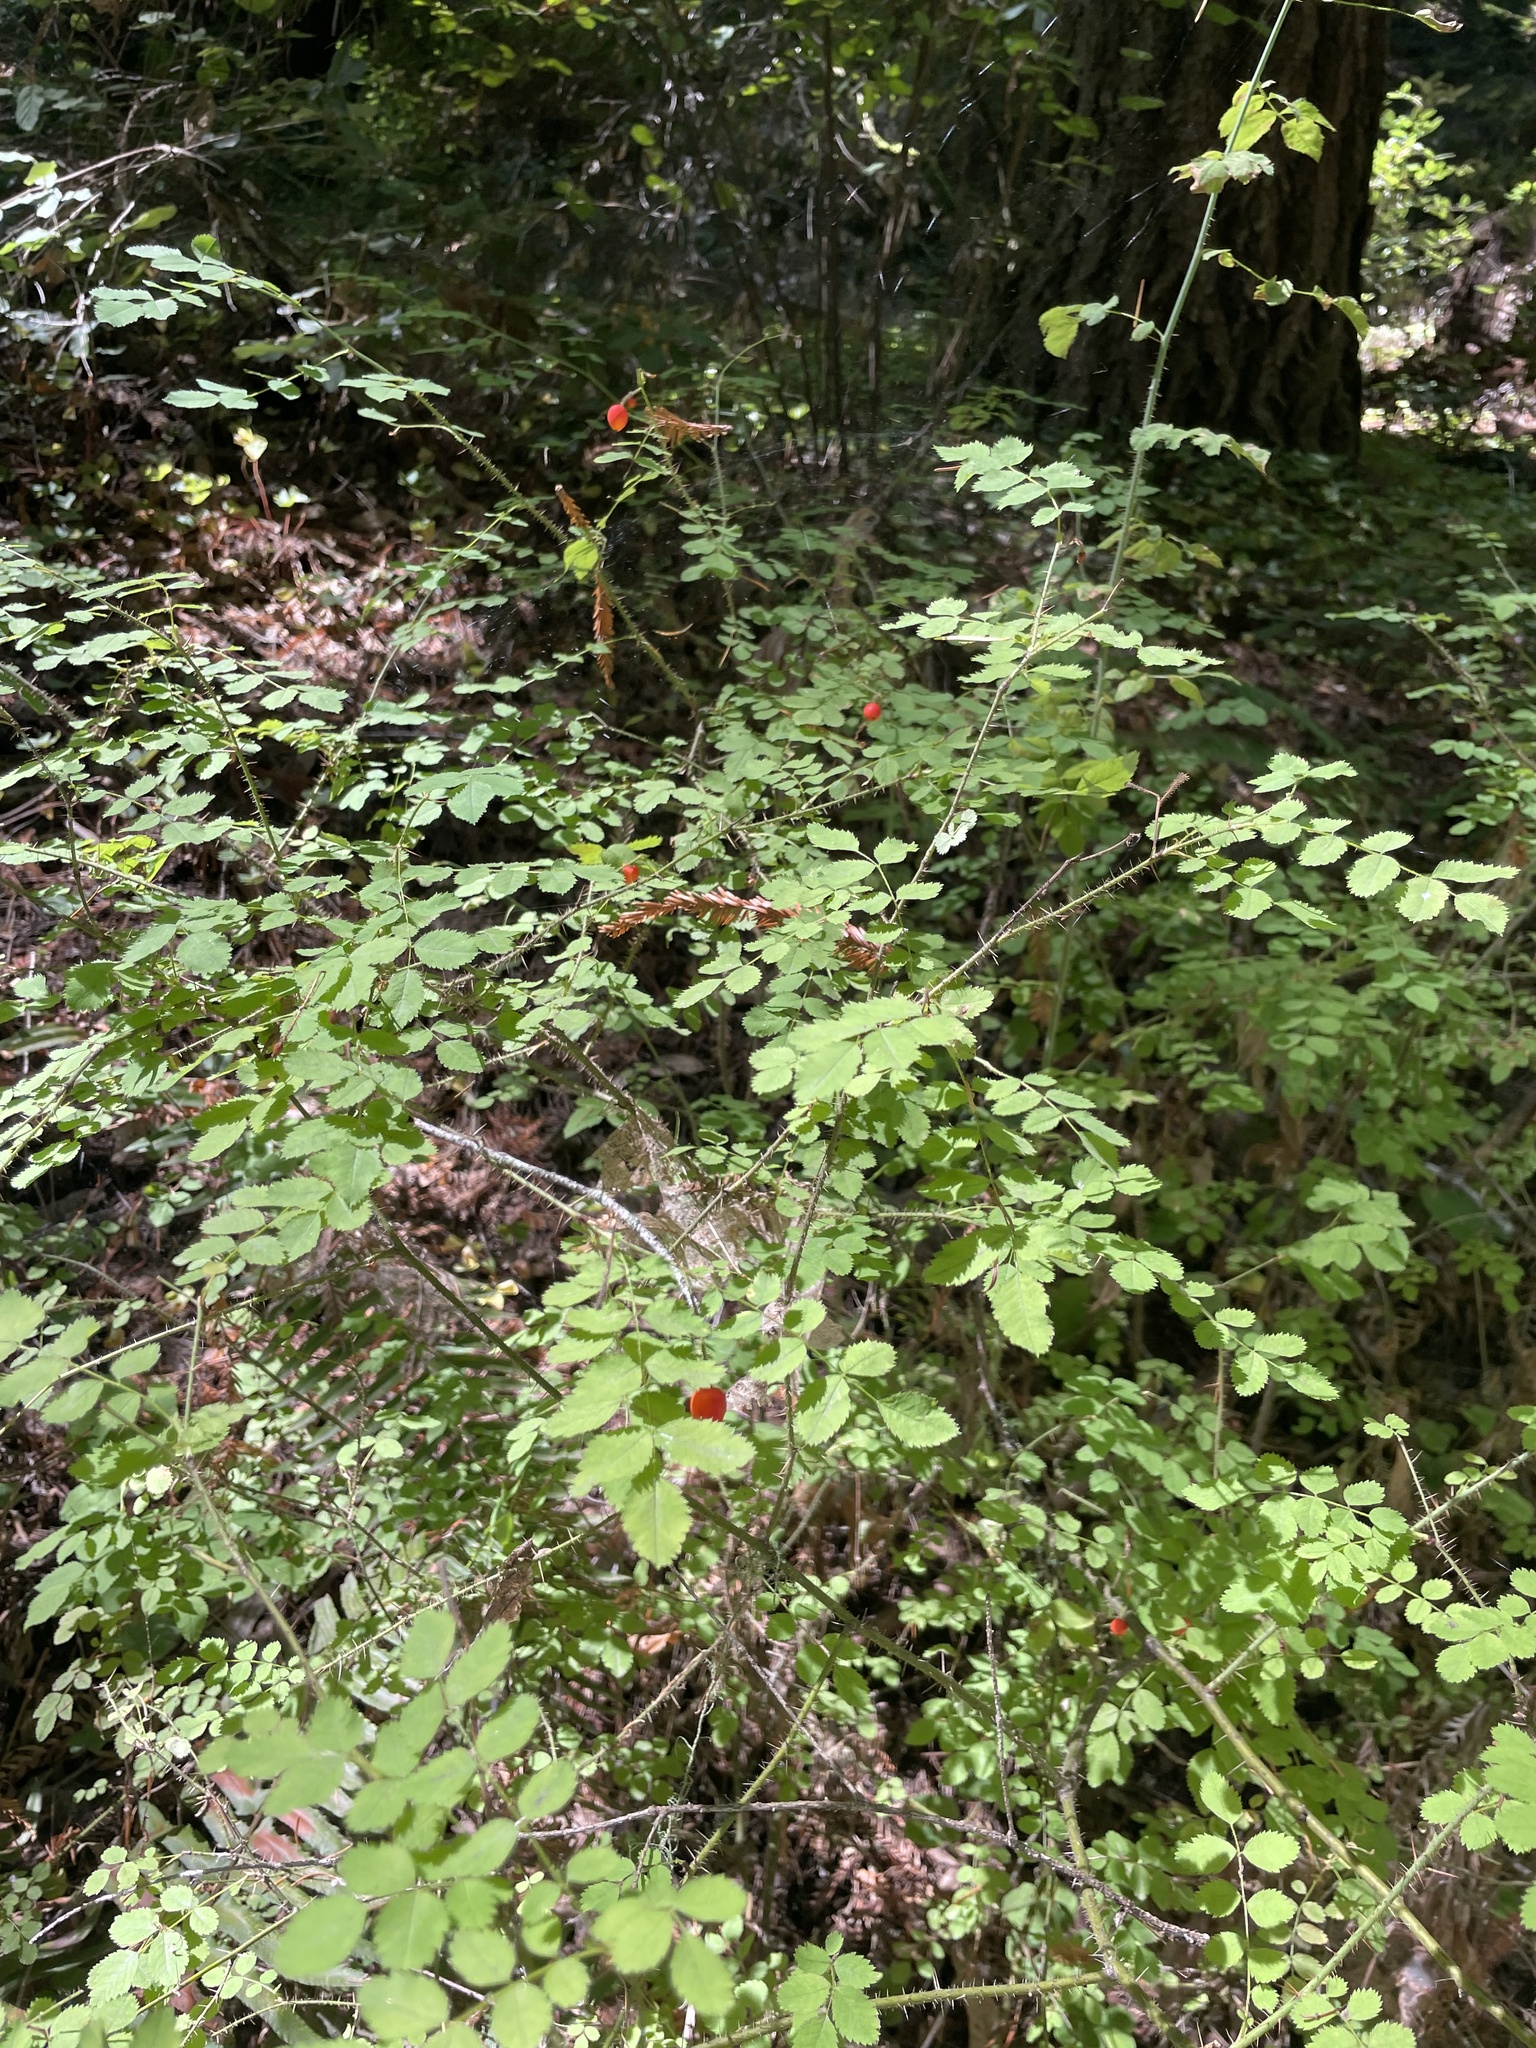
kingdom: Plantae
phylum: Tracheophyta
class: Magnoliopsida
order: Rosales
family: Rosaceae
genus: Rosa
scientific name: Rosa gymnocarpa
